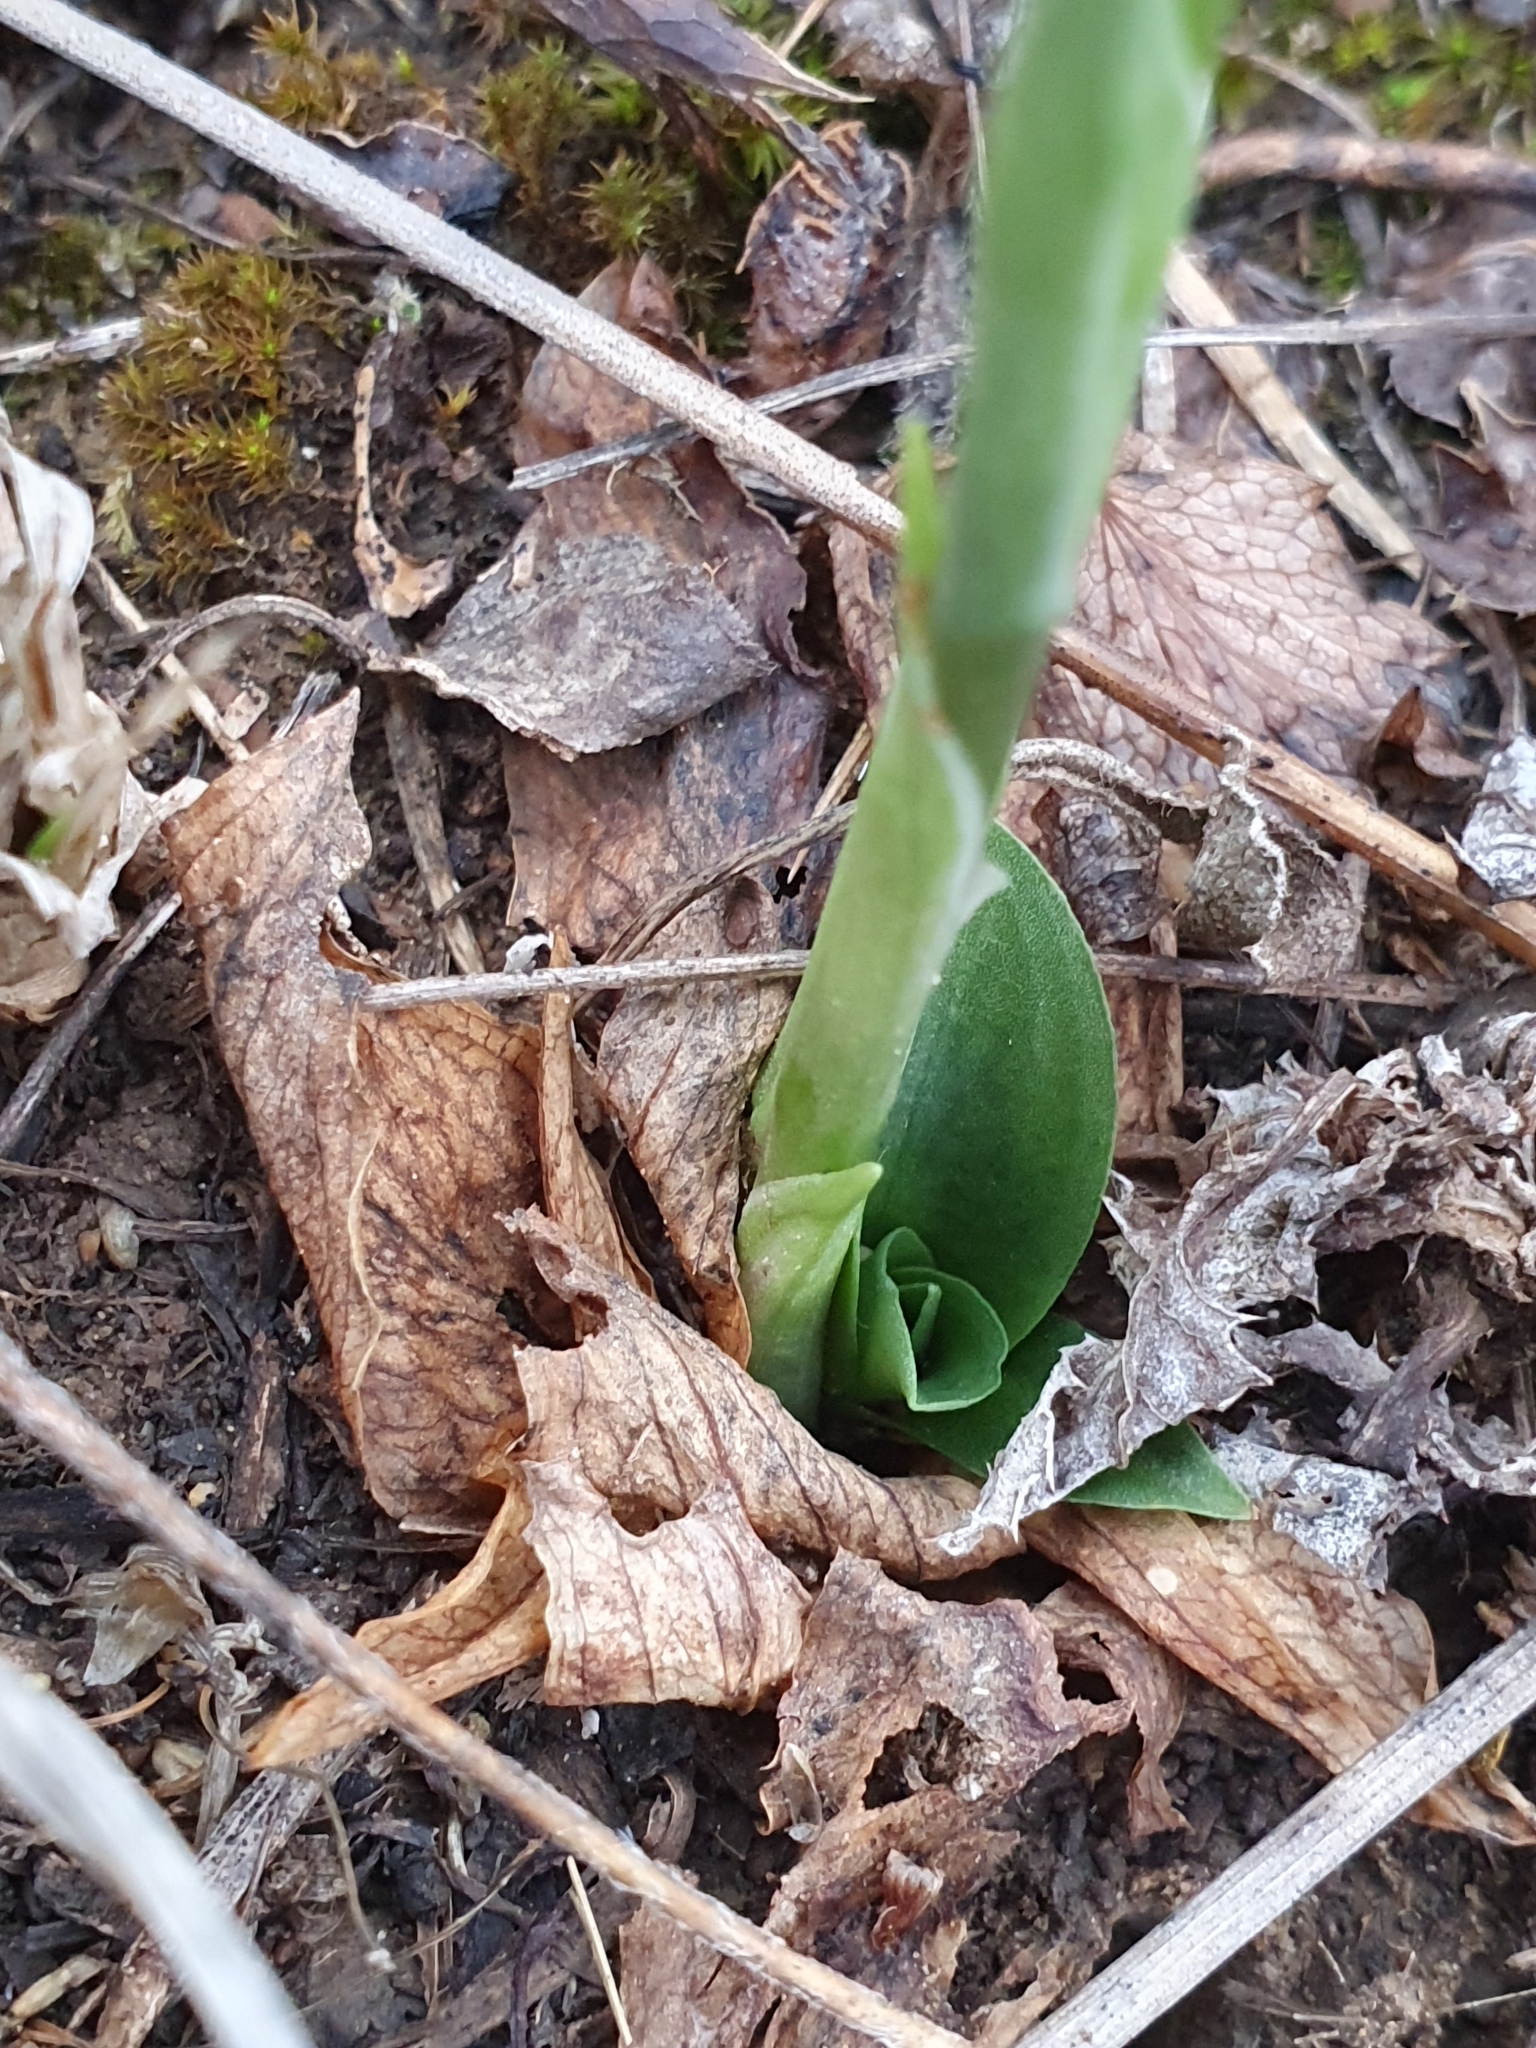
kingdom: Plantae
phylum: Tracheophyta
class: Liliopsida
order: Asparagales
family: Orchidaceae
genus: Spiranthes
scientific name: Spiranthes spiralis
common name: Autumn lady's-tresses
